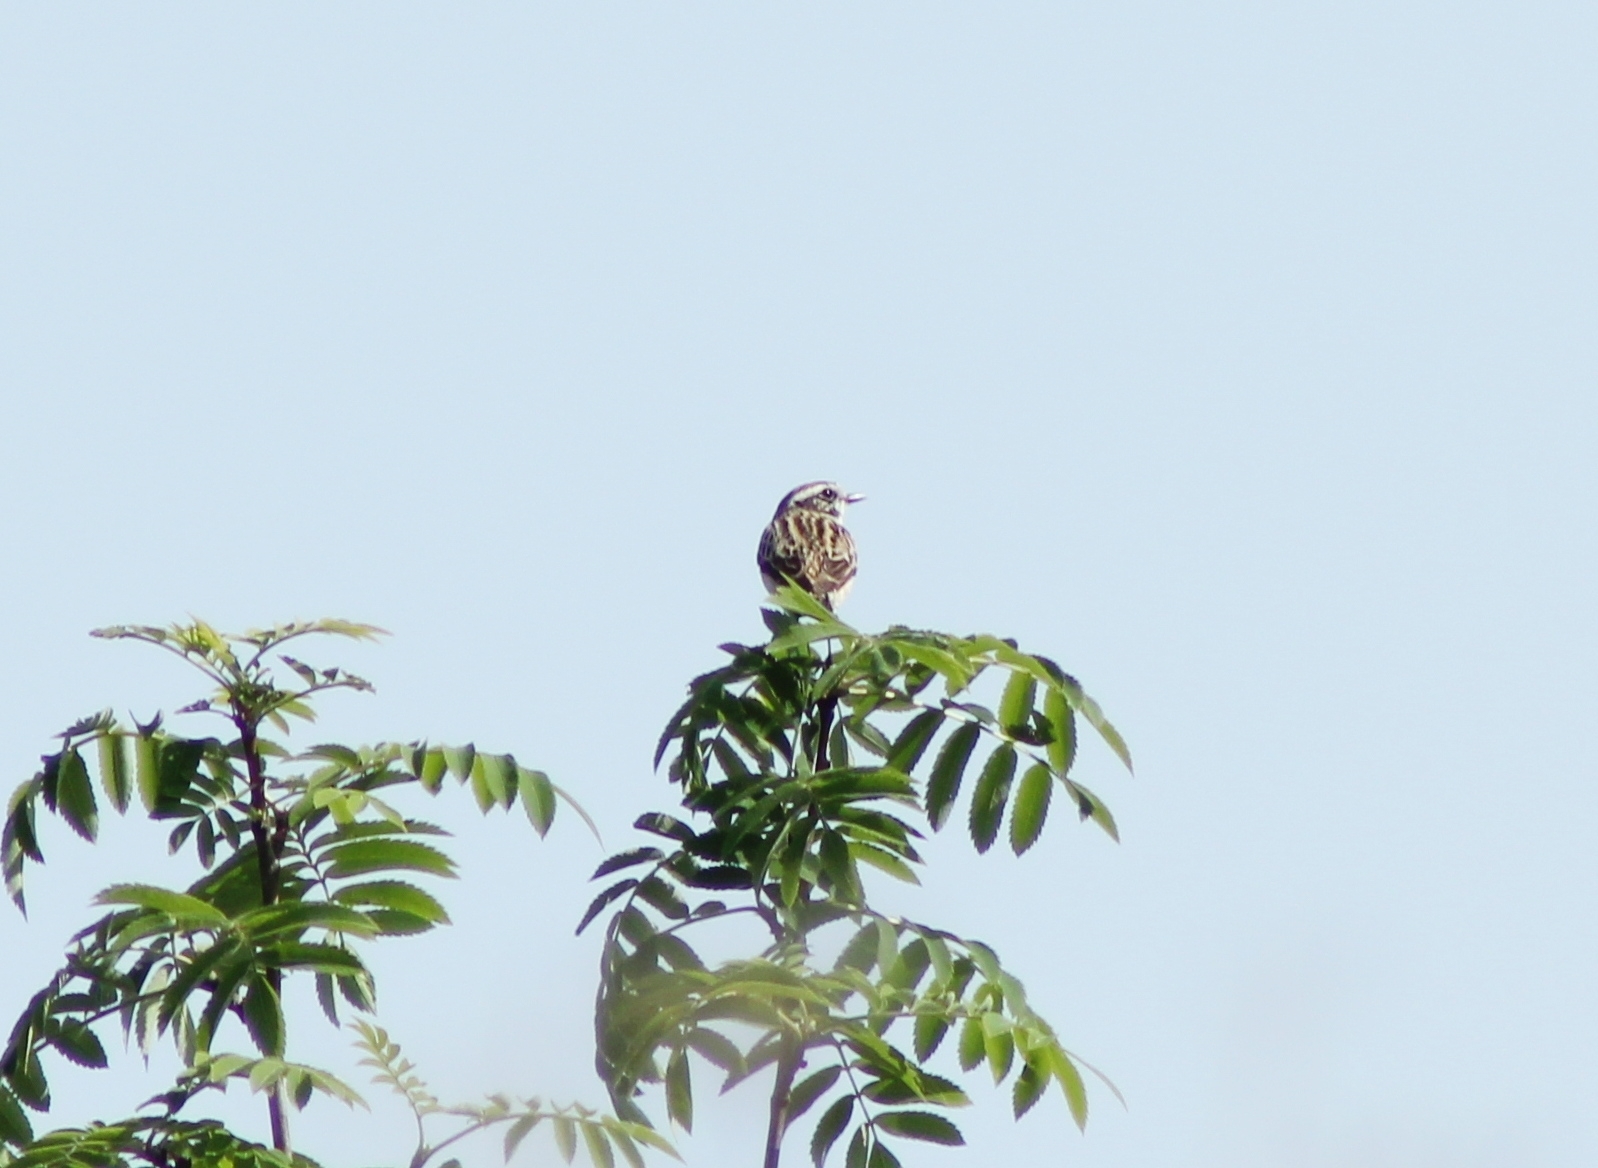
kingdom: Animalia
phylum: Chordata
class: Aves
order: Passeriformes
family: Muscicapidae
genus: Saxicola
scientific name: Saxicola rubetra
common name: Whinchat
